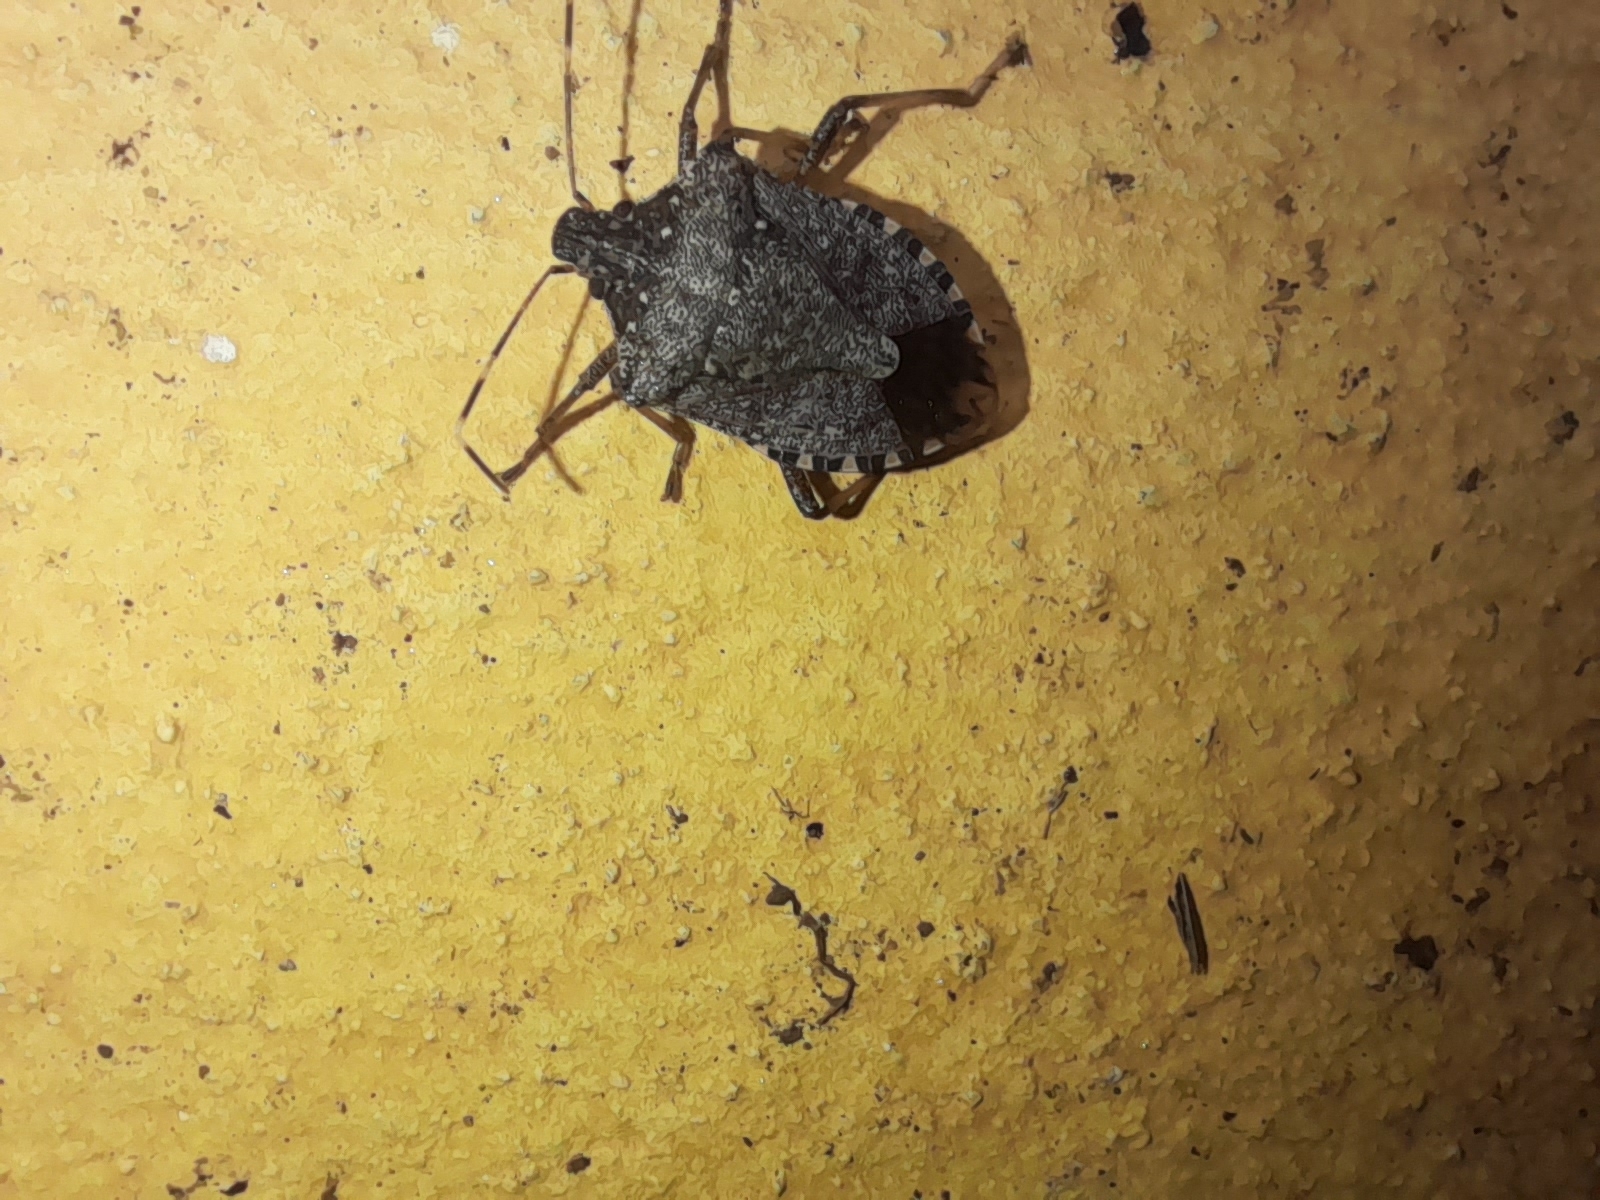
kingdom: Animalia
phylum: Arthropoda
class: Insecta
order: Hemiptera
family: Pentatomidae
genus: Halyomorpha
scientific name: Halyomorpha halys
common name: Brown marmorated stink bug
